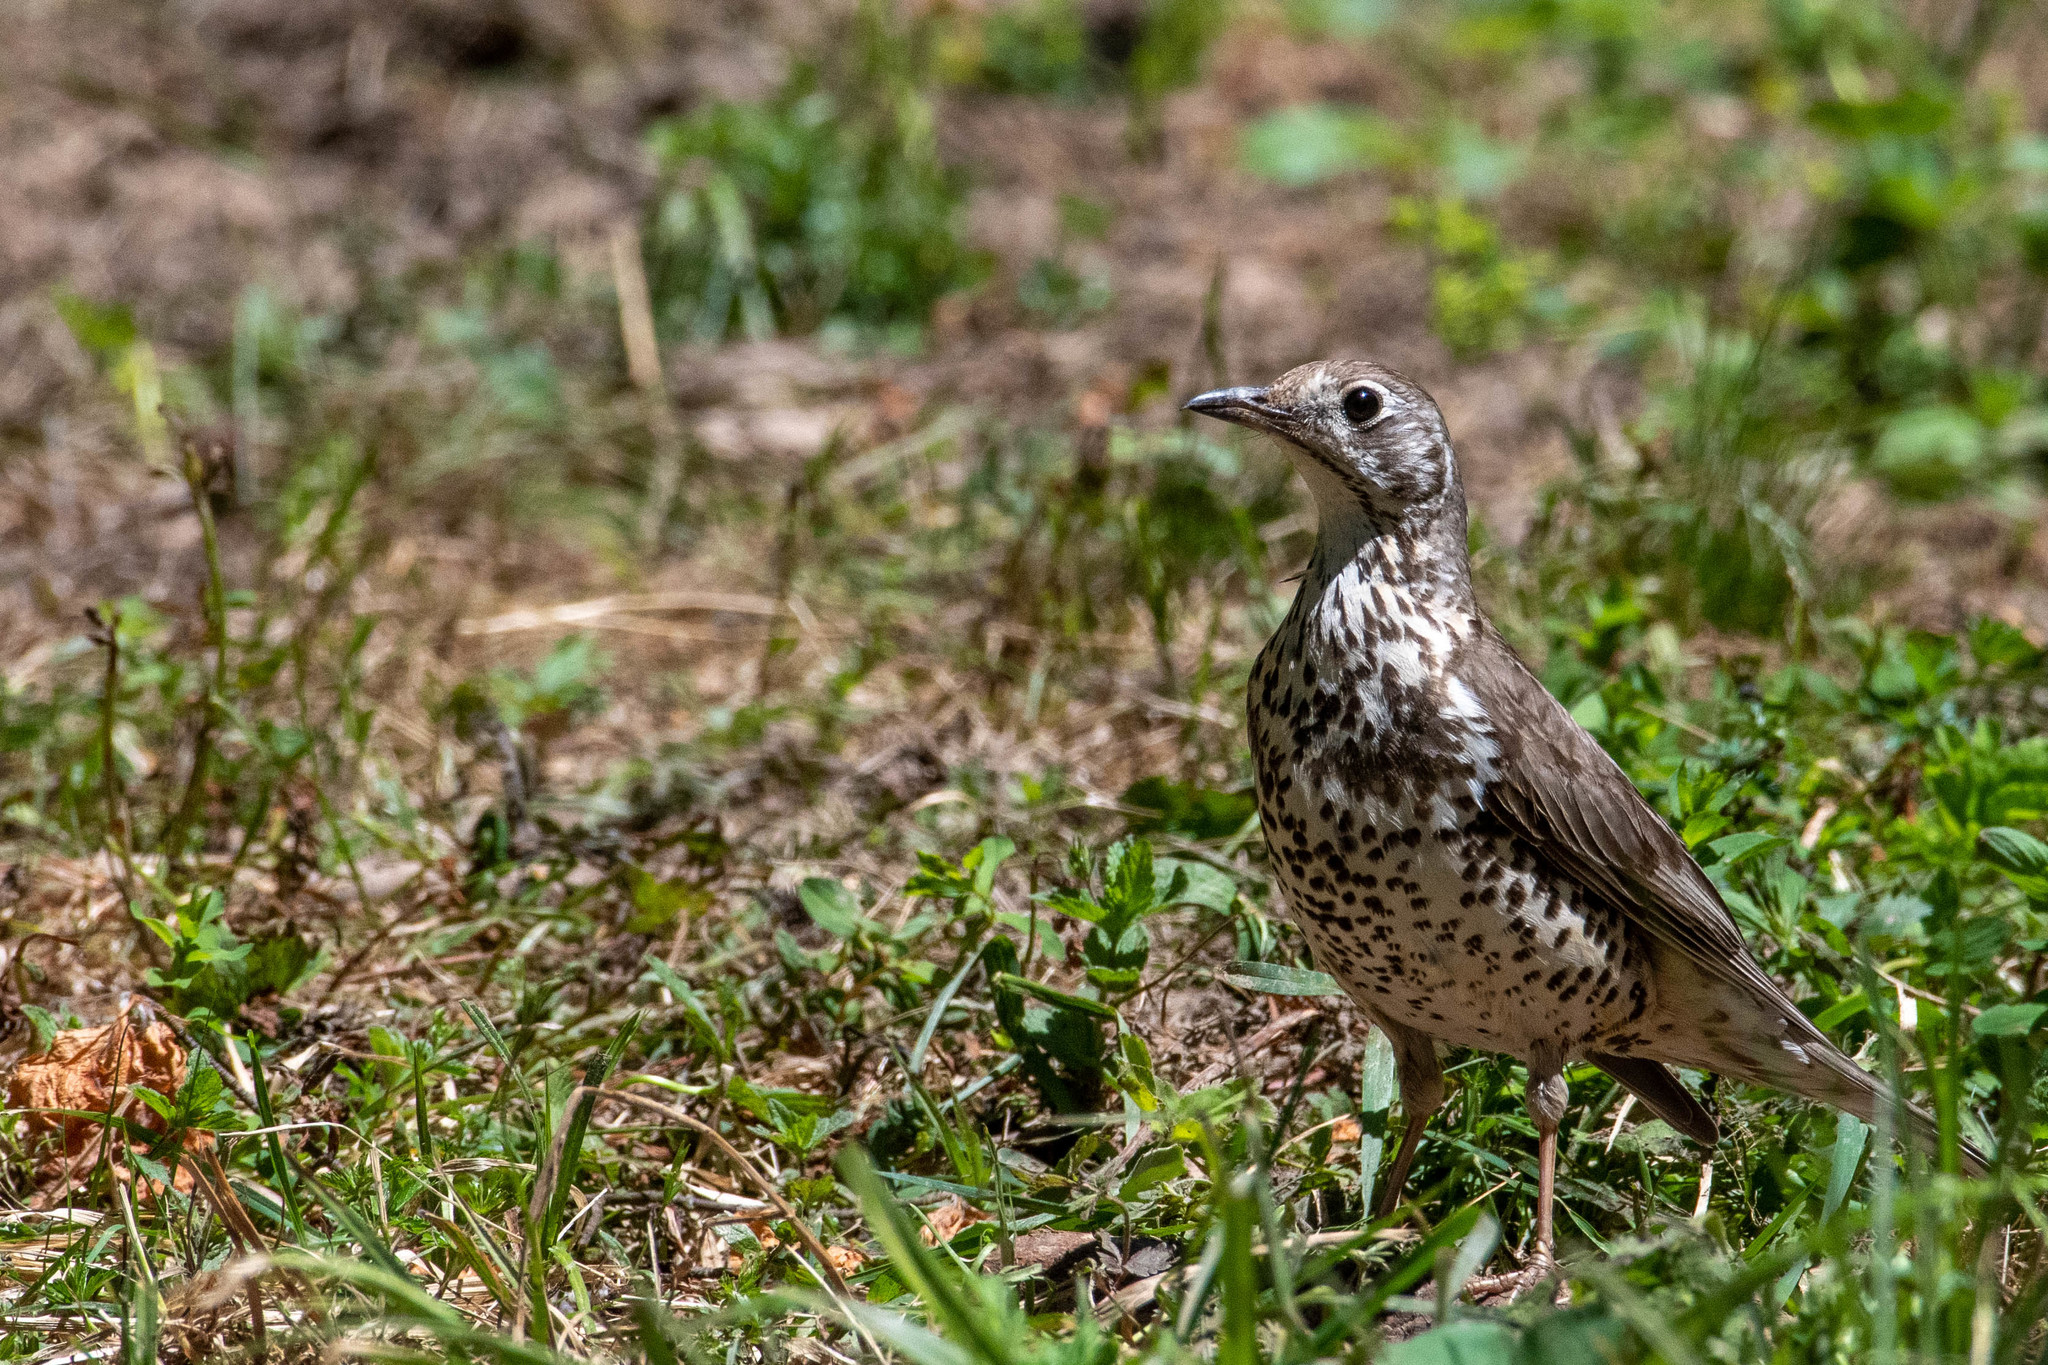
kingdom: Animalia
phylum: Chordata
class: Aves
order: Passeriformes
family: Turdidae
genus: Turdus
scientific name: Turdus viscivorus
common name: Mistle thrush
